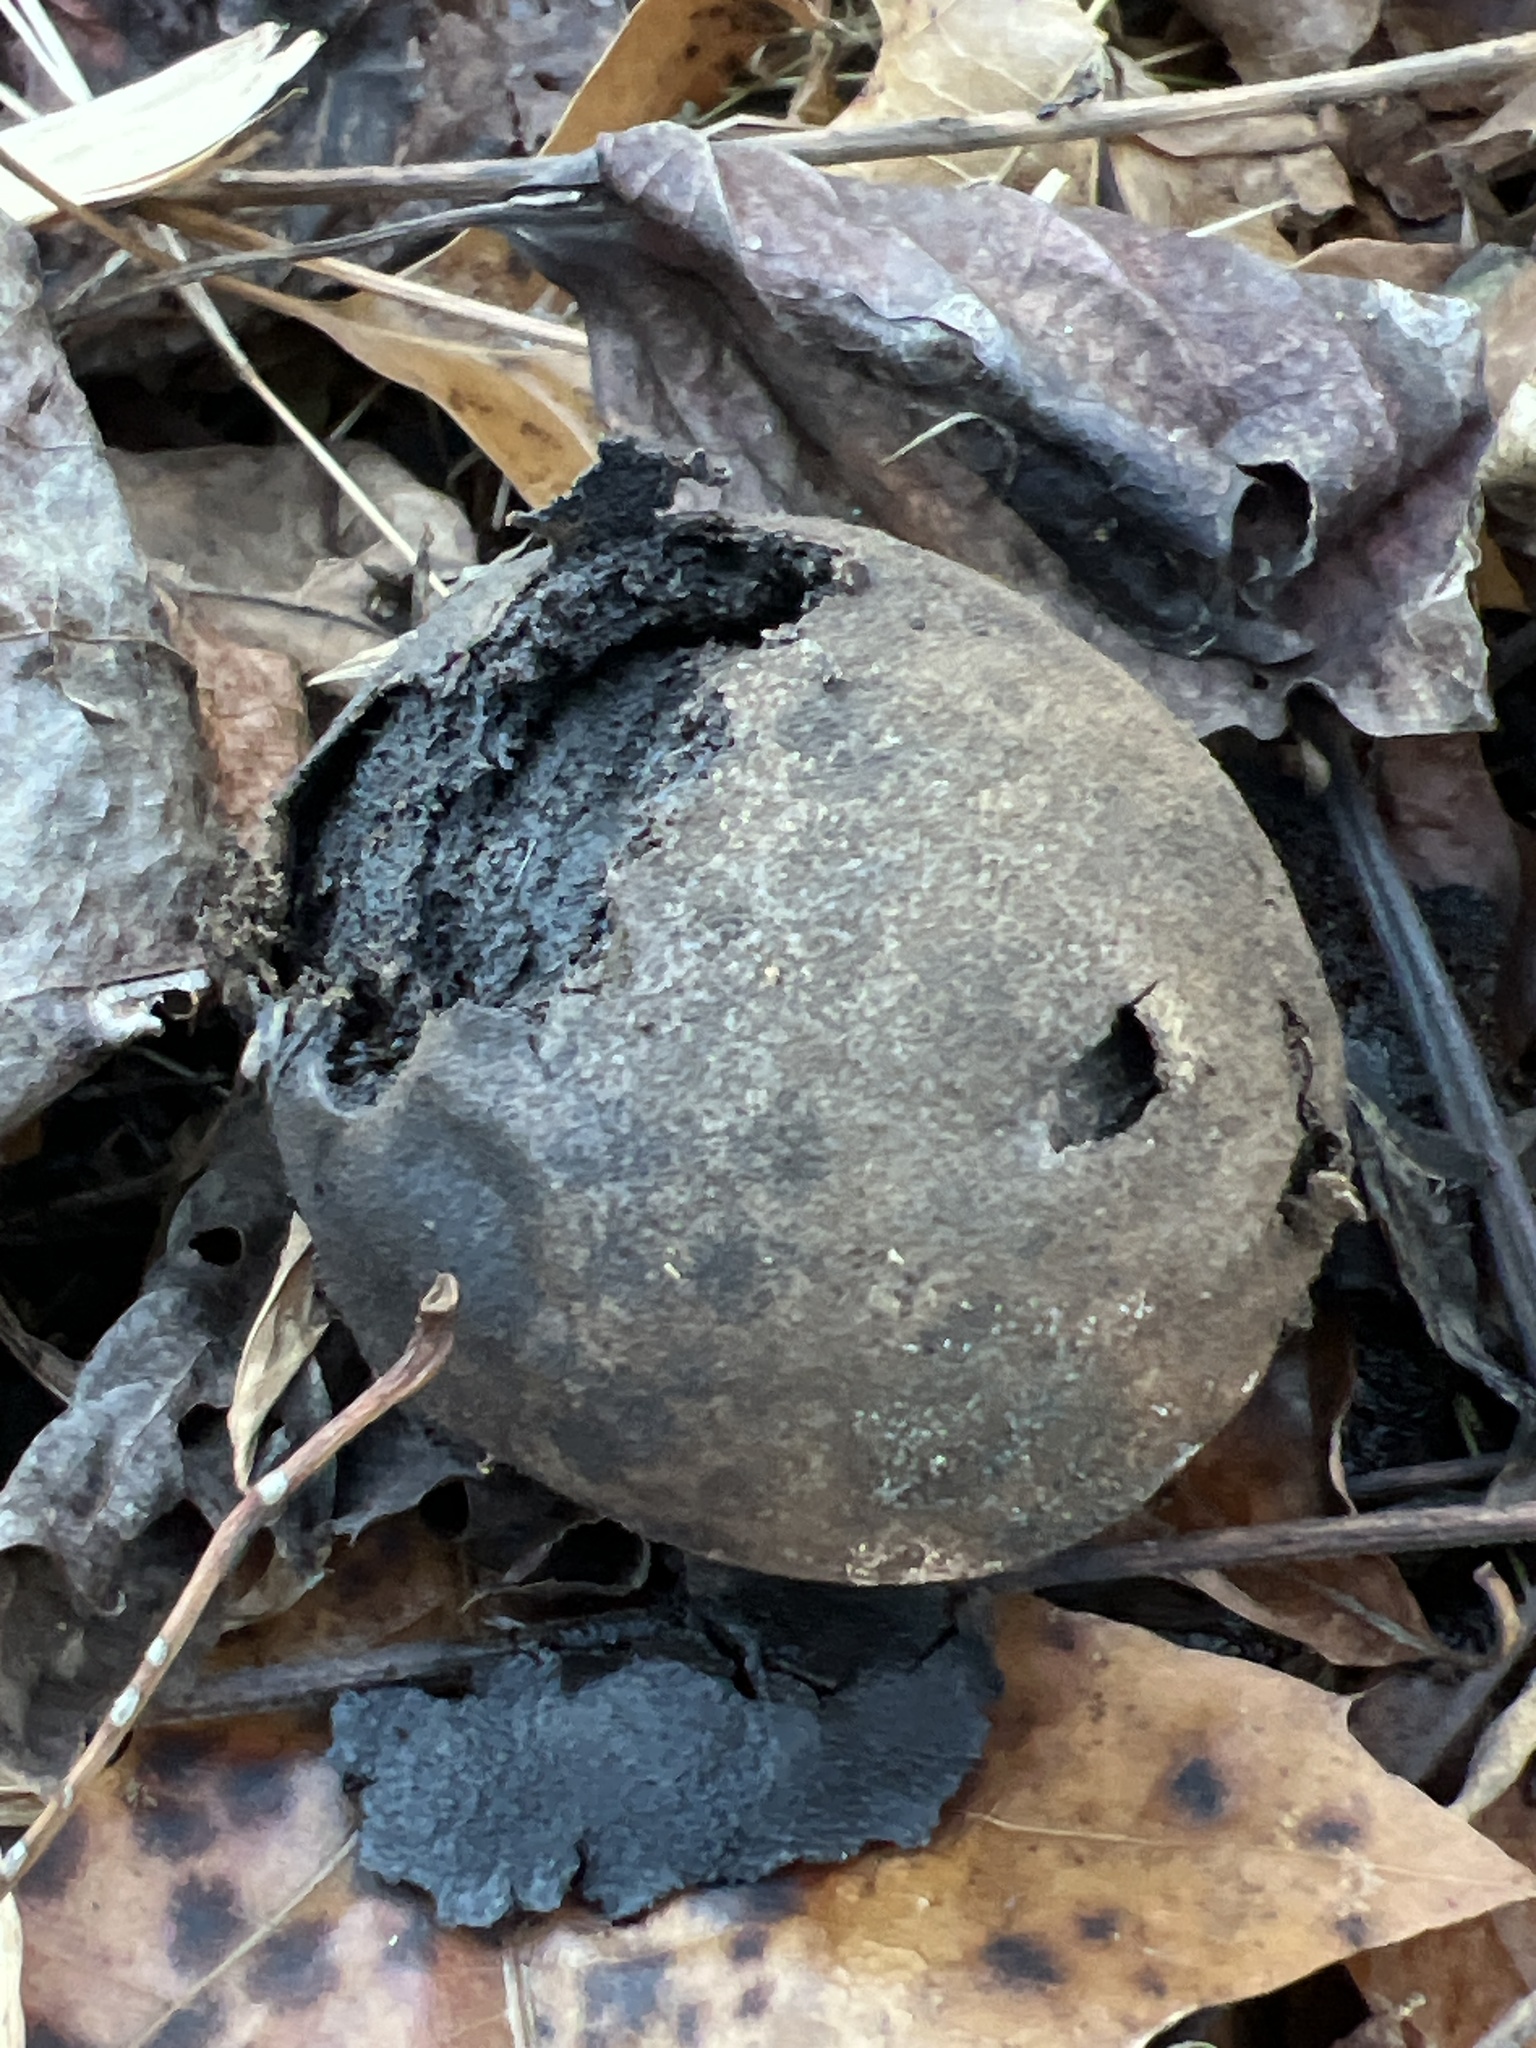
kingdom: Plantae
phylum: Tracheophyta
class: Magnoliopsida
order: Fagales
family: Juglandaceae
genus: Juglans
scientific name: Juglans nigra
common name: Black walnut
